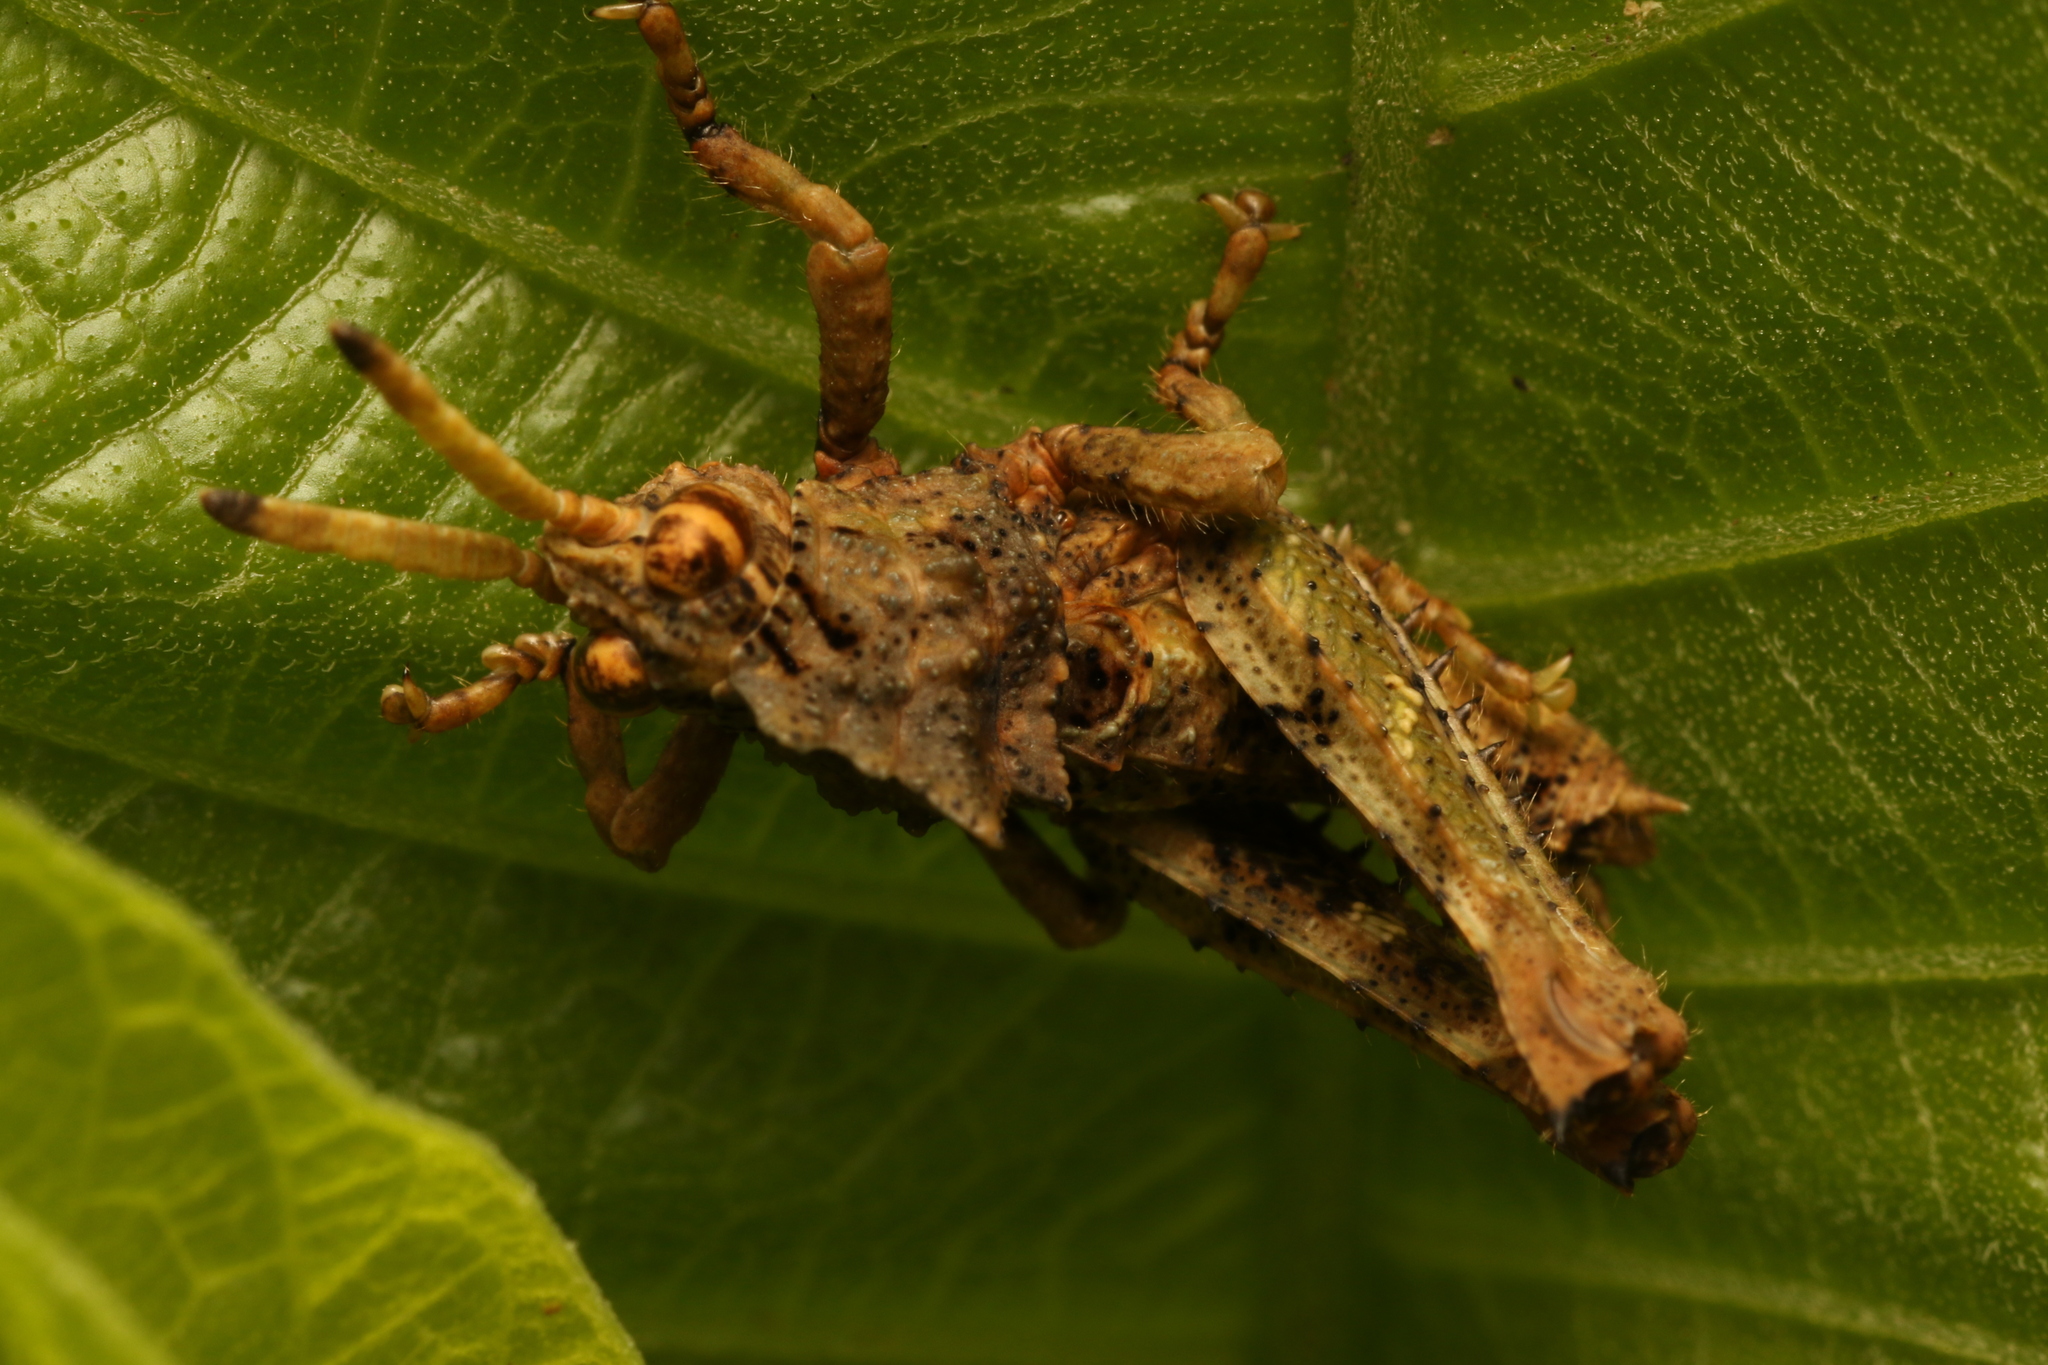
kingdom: Animalia
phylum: Arthropoda
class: Insecta
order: Orthoptera
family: Acrididae
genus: Pycnosarcus
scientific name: Pycnosarcus atavus
